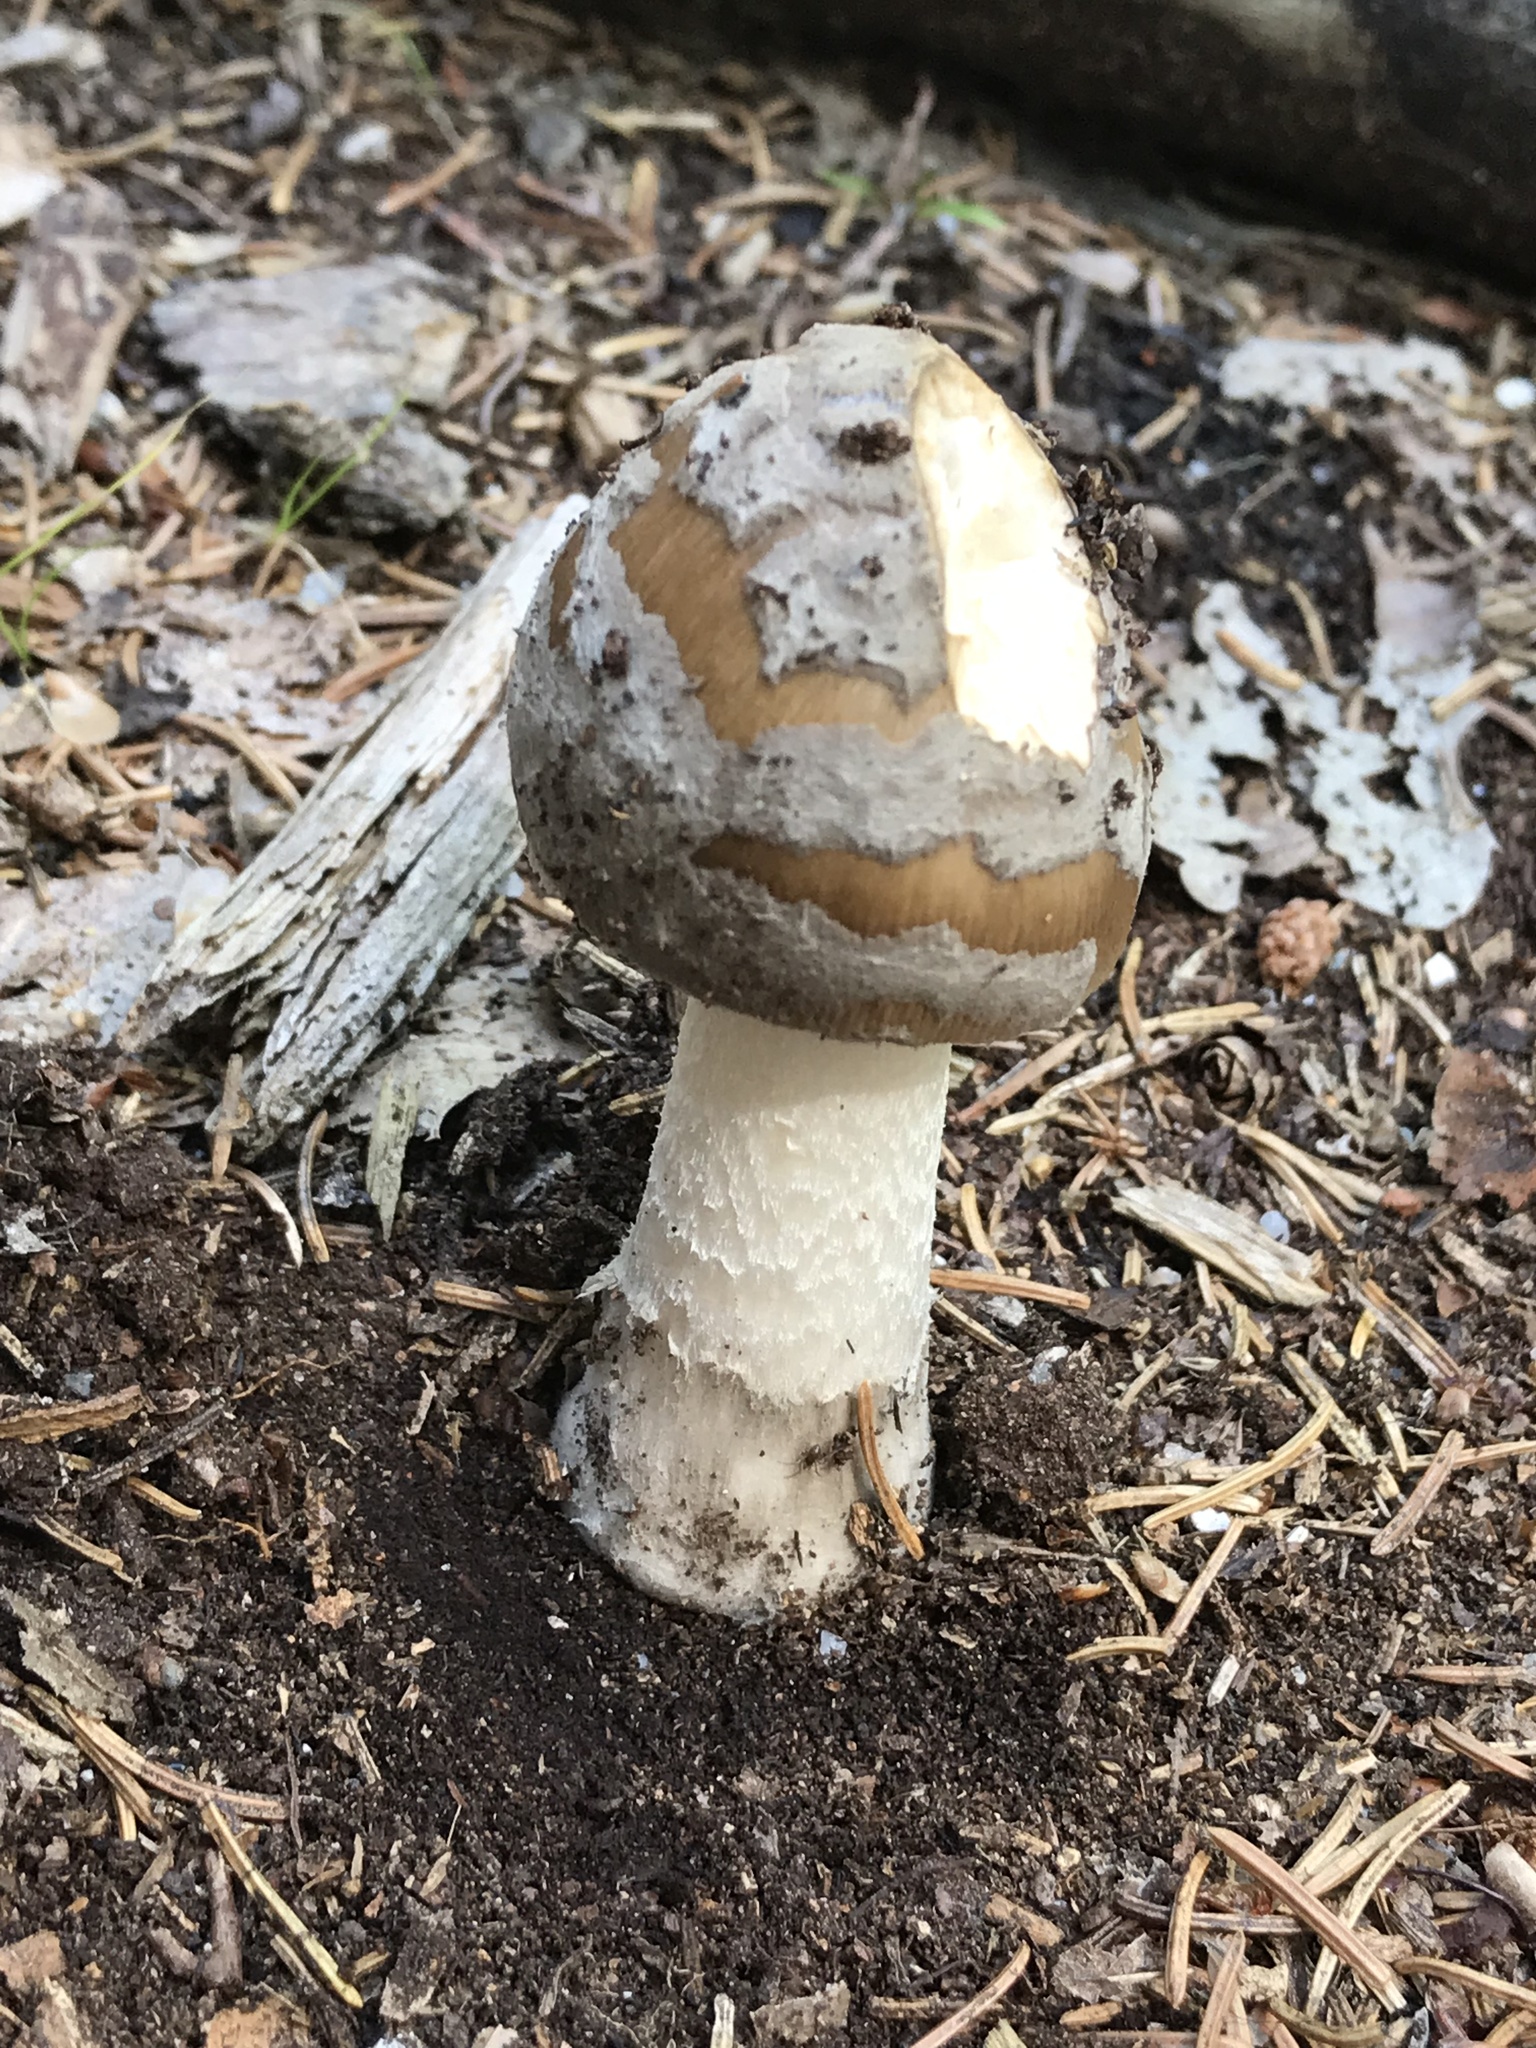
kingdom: Fungi
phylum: Basidiomycota
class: Agaricomycetes
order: Agaricales
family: Amanitaceae
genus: Amanita
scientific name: Amanita rhacopus
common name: Shaggy legged ringless amanita
